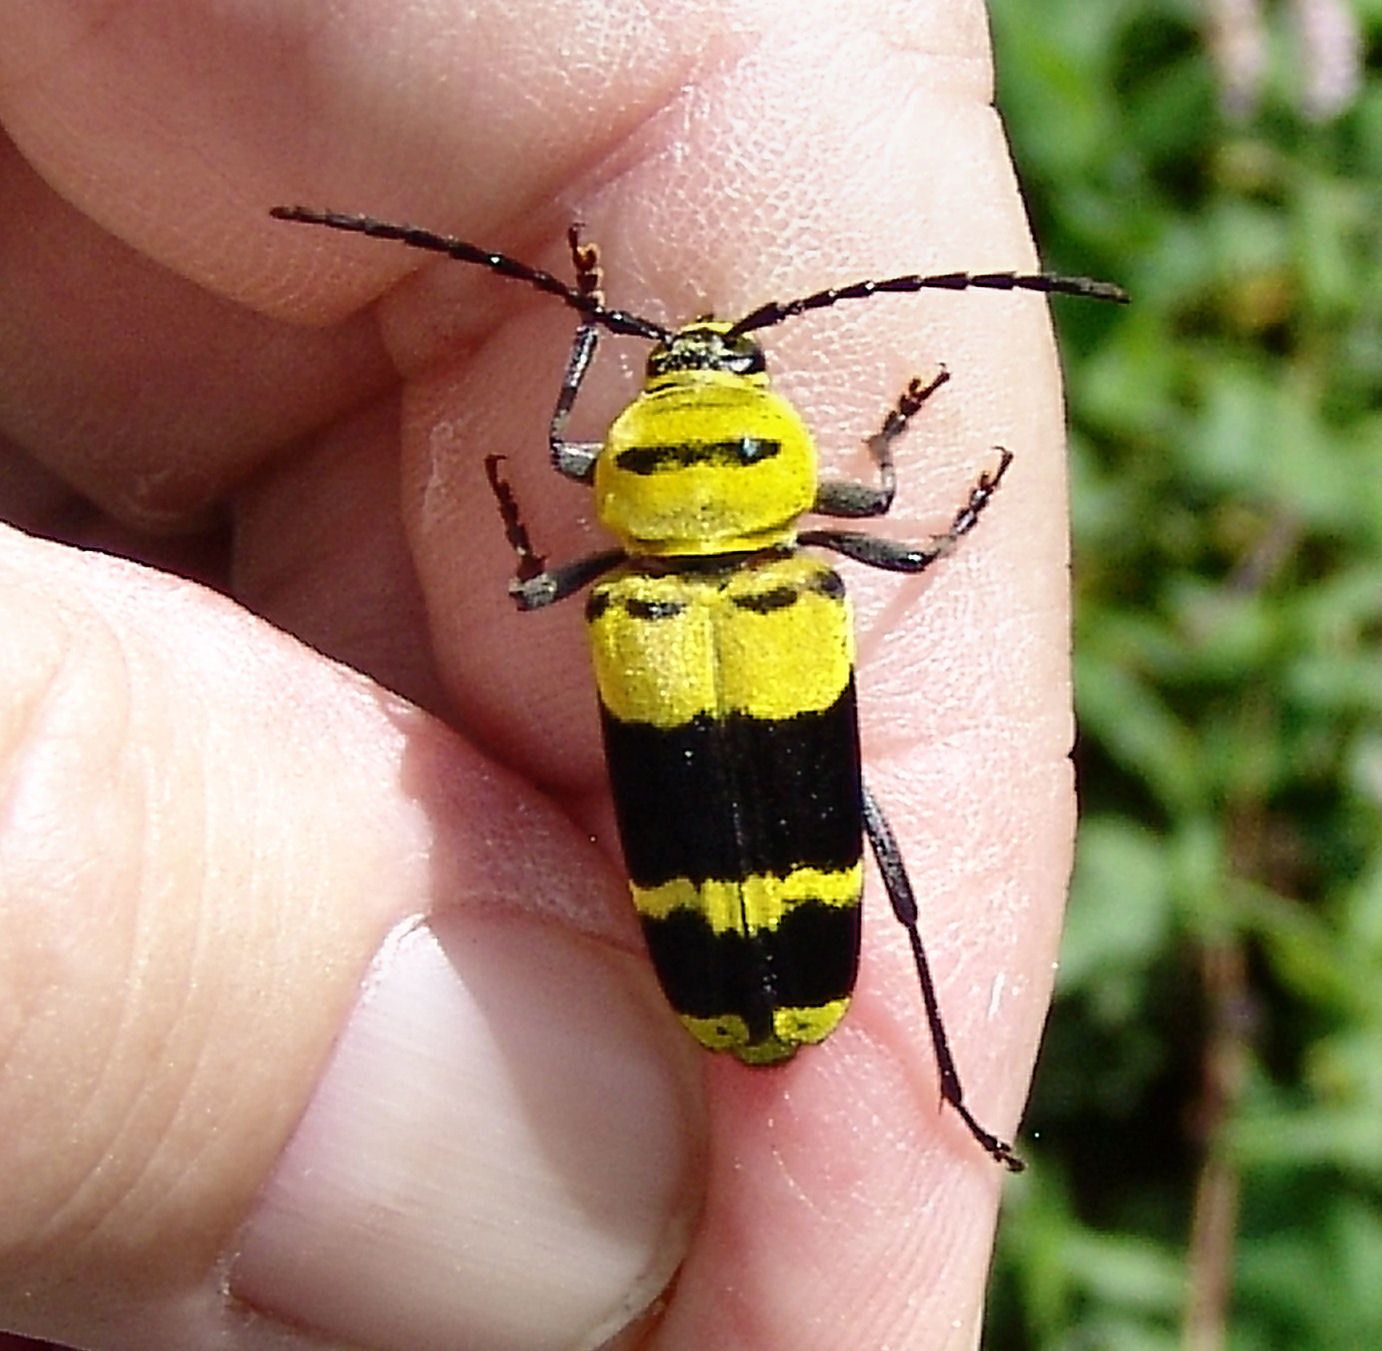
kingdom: Animalia
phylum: Arthropoda
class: Insecta
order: Coleoptera
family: Cerambycidae
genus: Megacyllene
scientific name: Megacyllene decora
